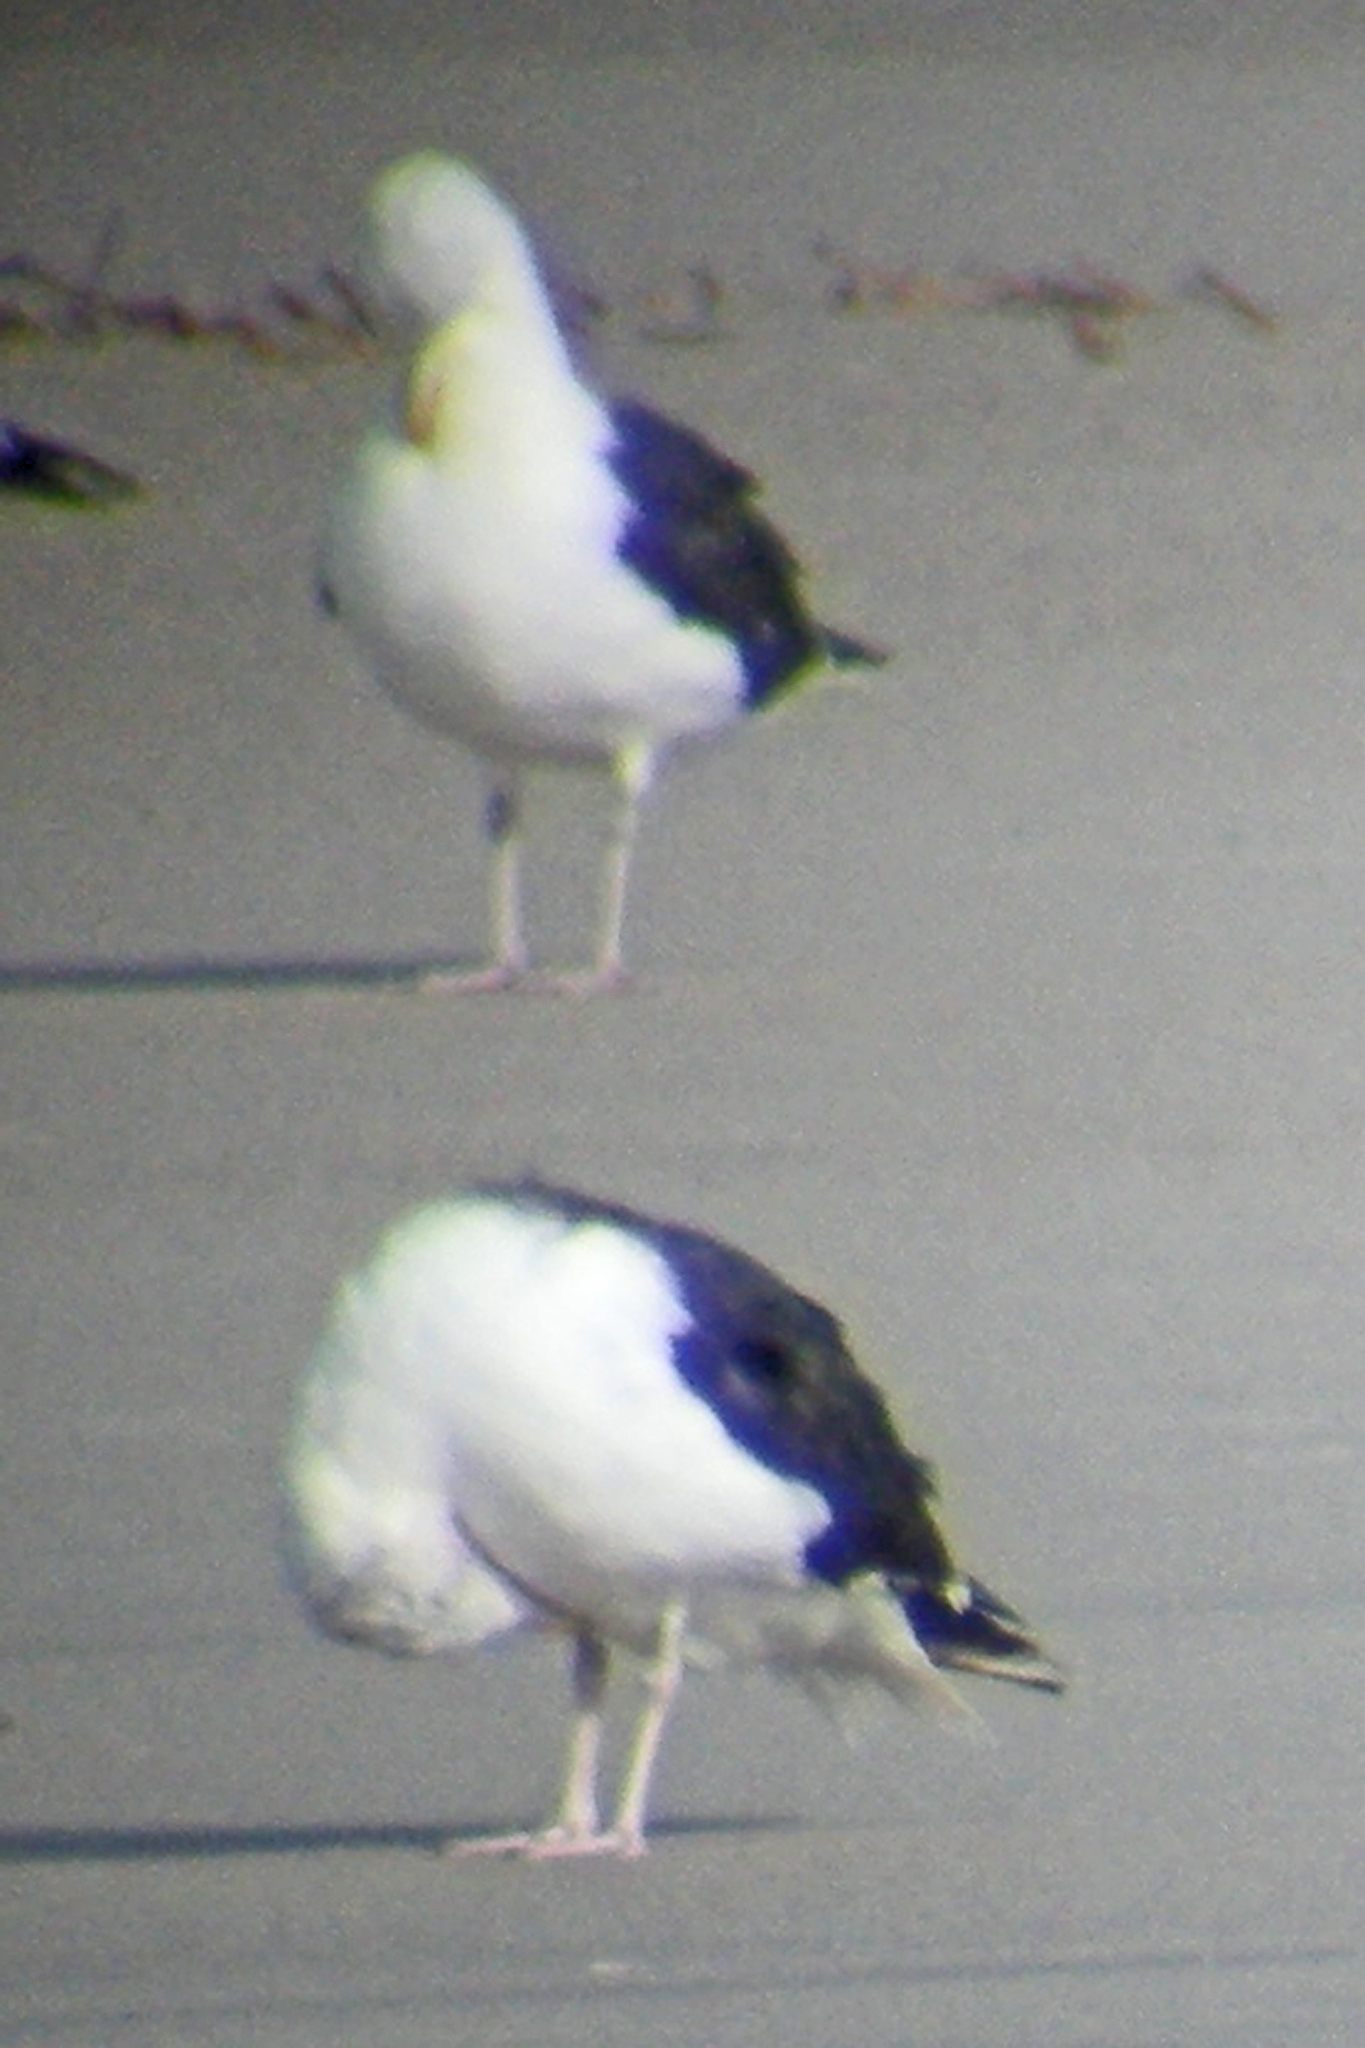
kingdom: Animalia
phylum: Chordata
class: Aves
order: Charadriiformes
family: Laridae
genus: Larus
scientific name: Larus marinus
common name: Great black-backed gull
